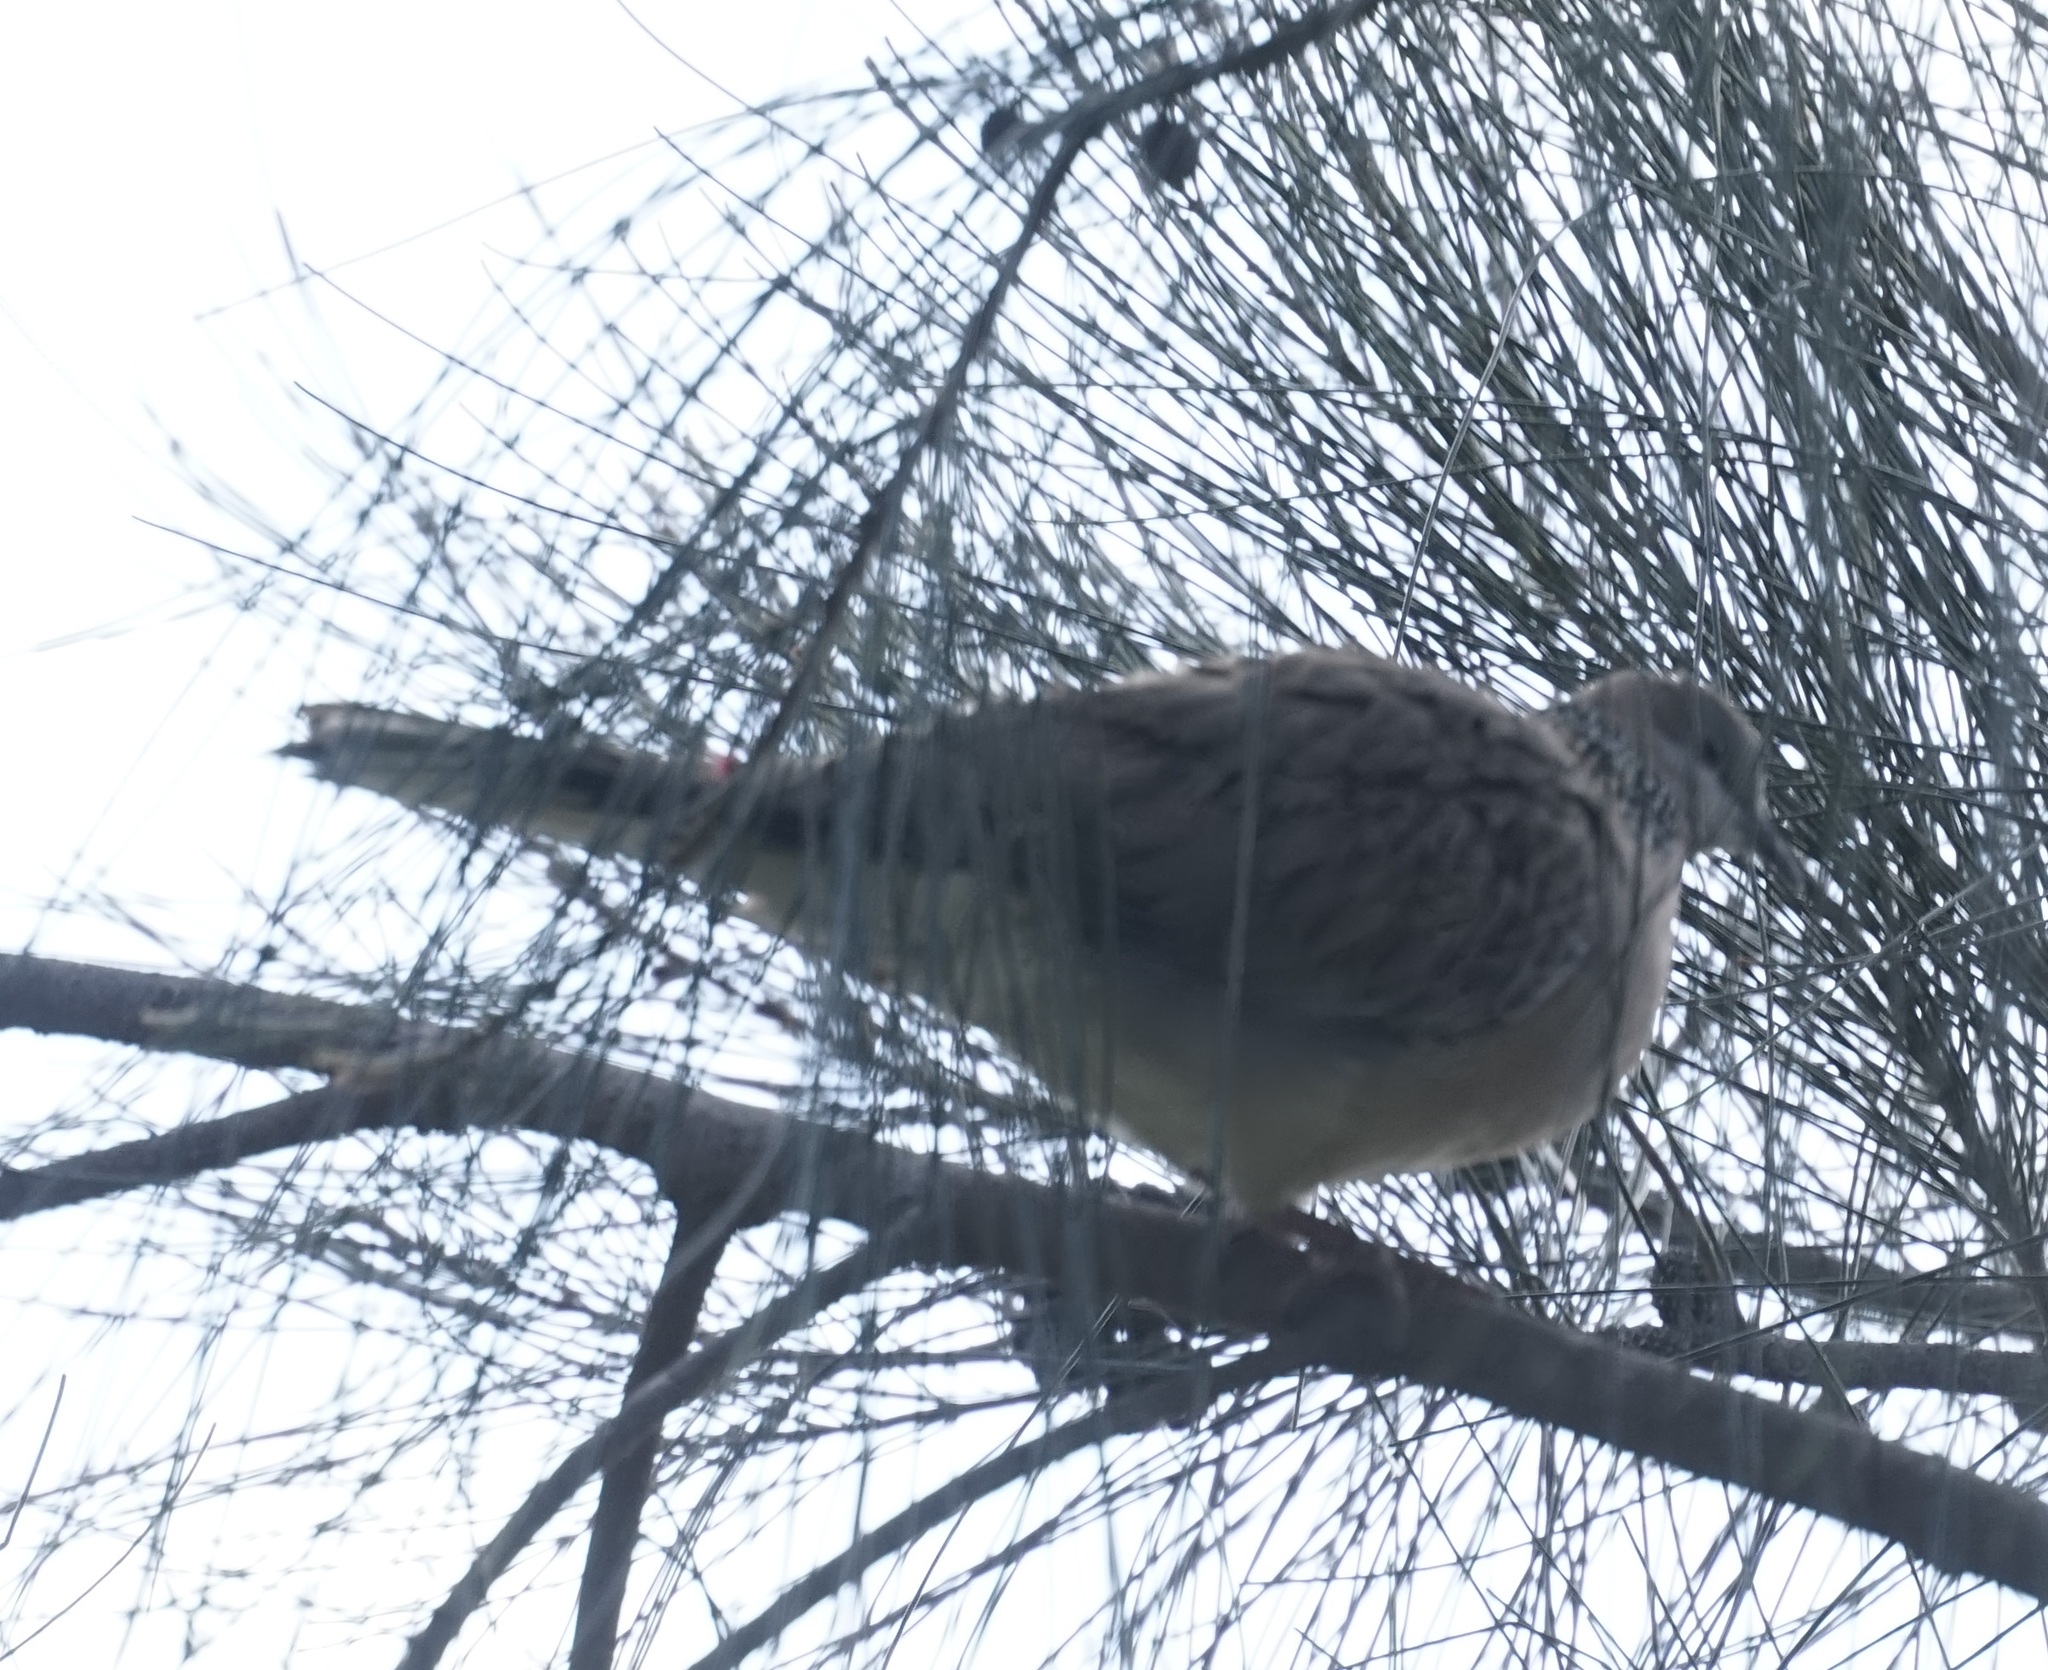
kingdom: Animalia
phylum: Chordata
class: Aves
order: Columbiformes
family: Columbidae
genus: Spilopelia
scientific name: Spilopelia chinensis
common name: Spotted dove
